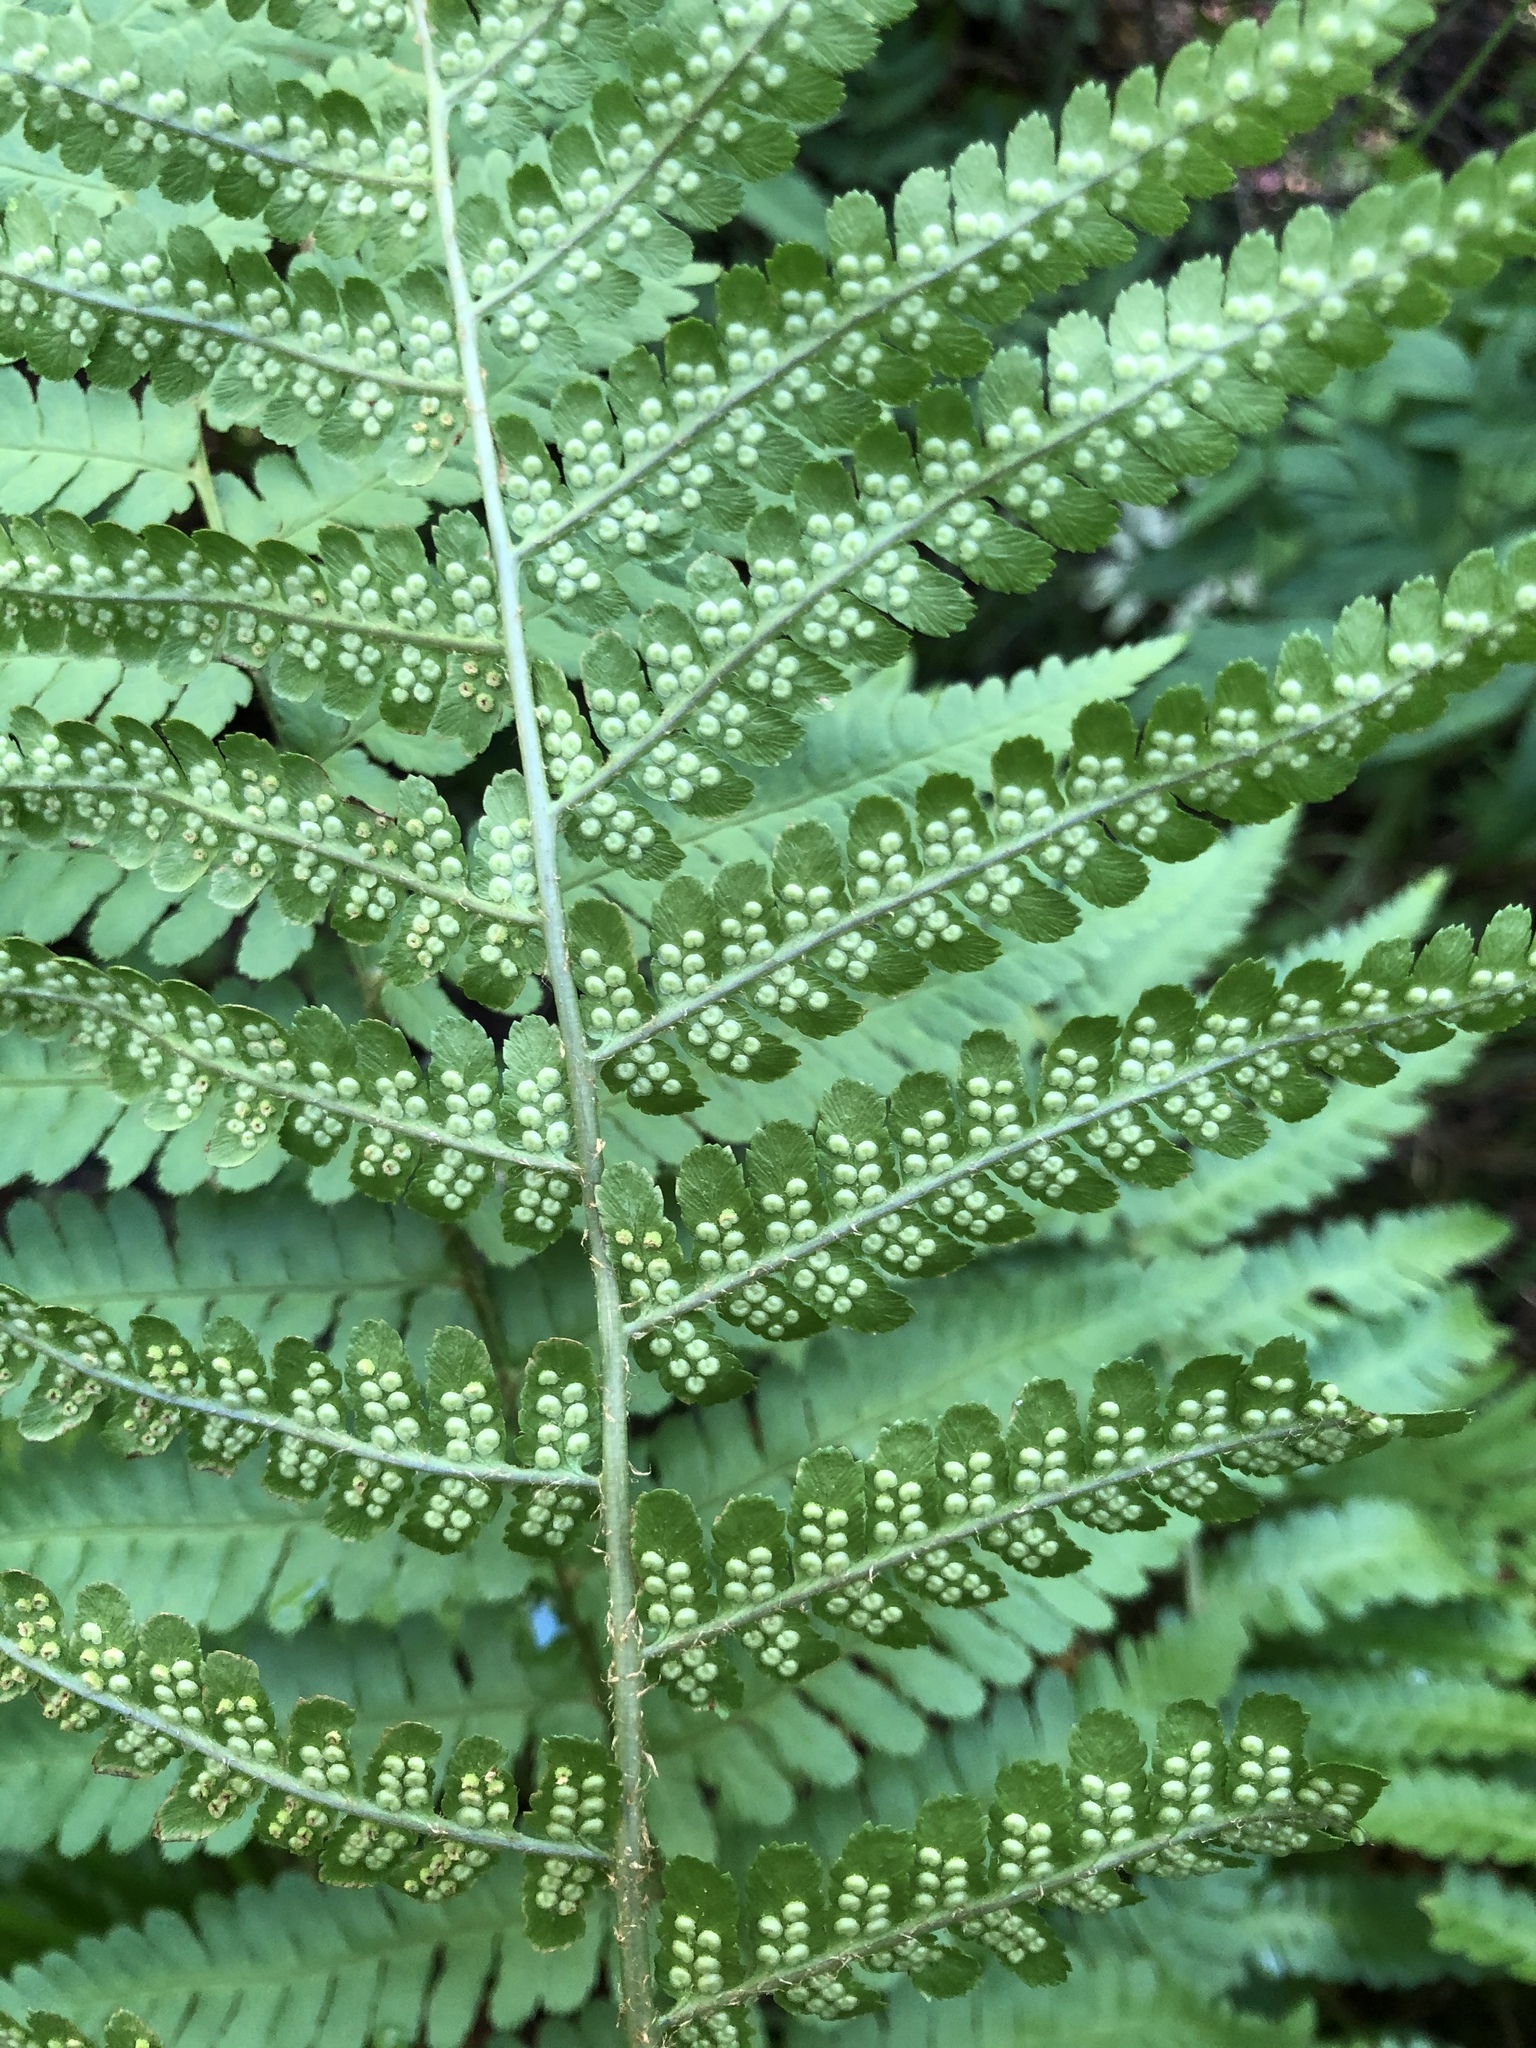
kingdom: Plantae
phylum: Tracheophyta
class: Polypodiopsida
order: Polypodiales
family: Dryopteridaceae
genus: Dryopteris
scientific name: Dryopteris filix-mas
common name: Male fern
